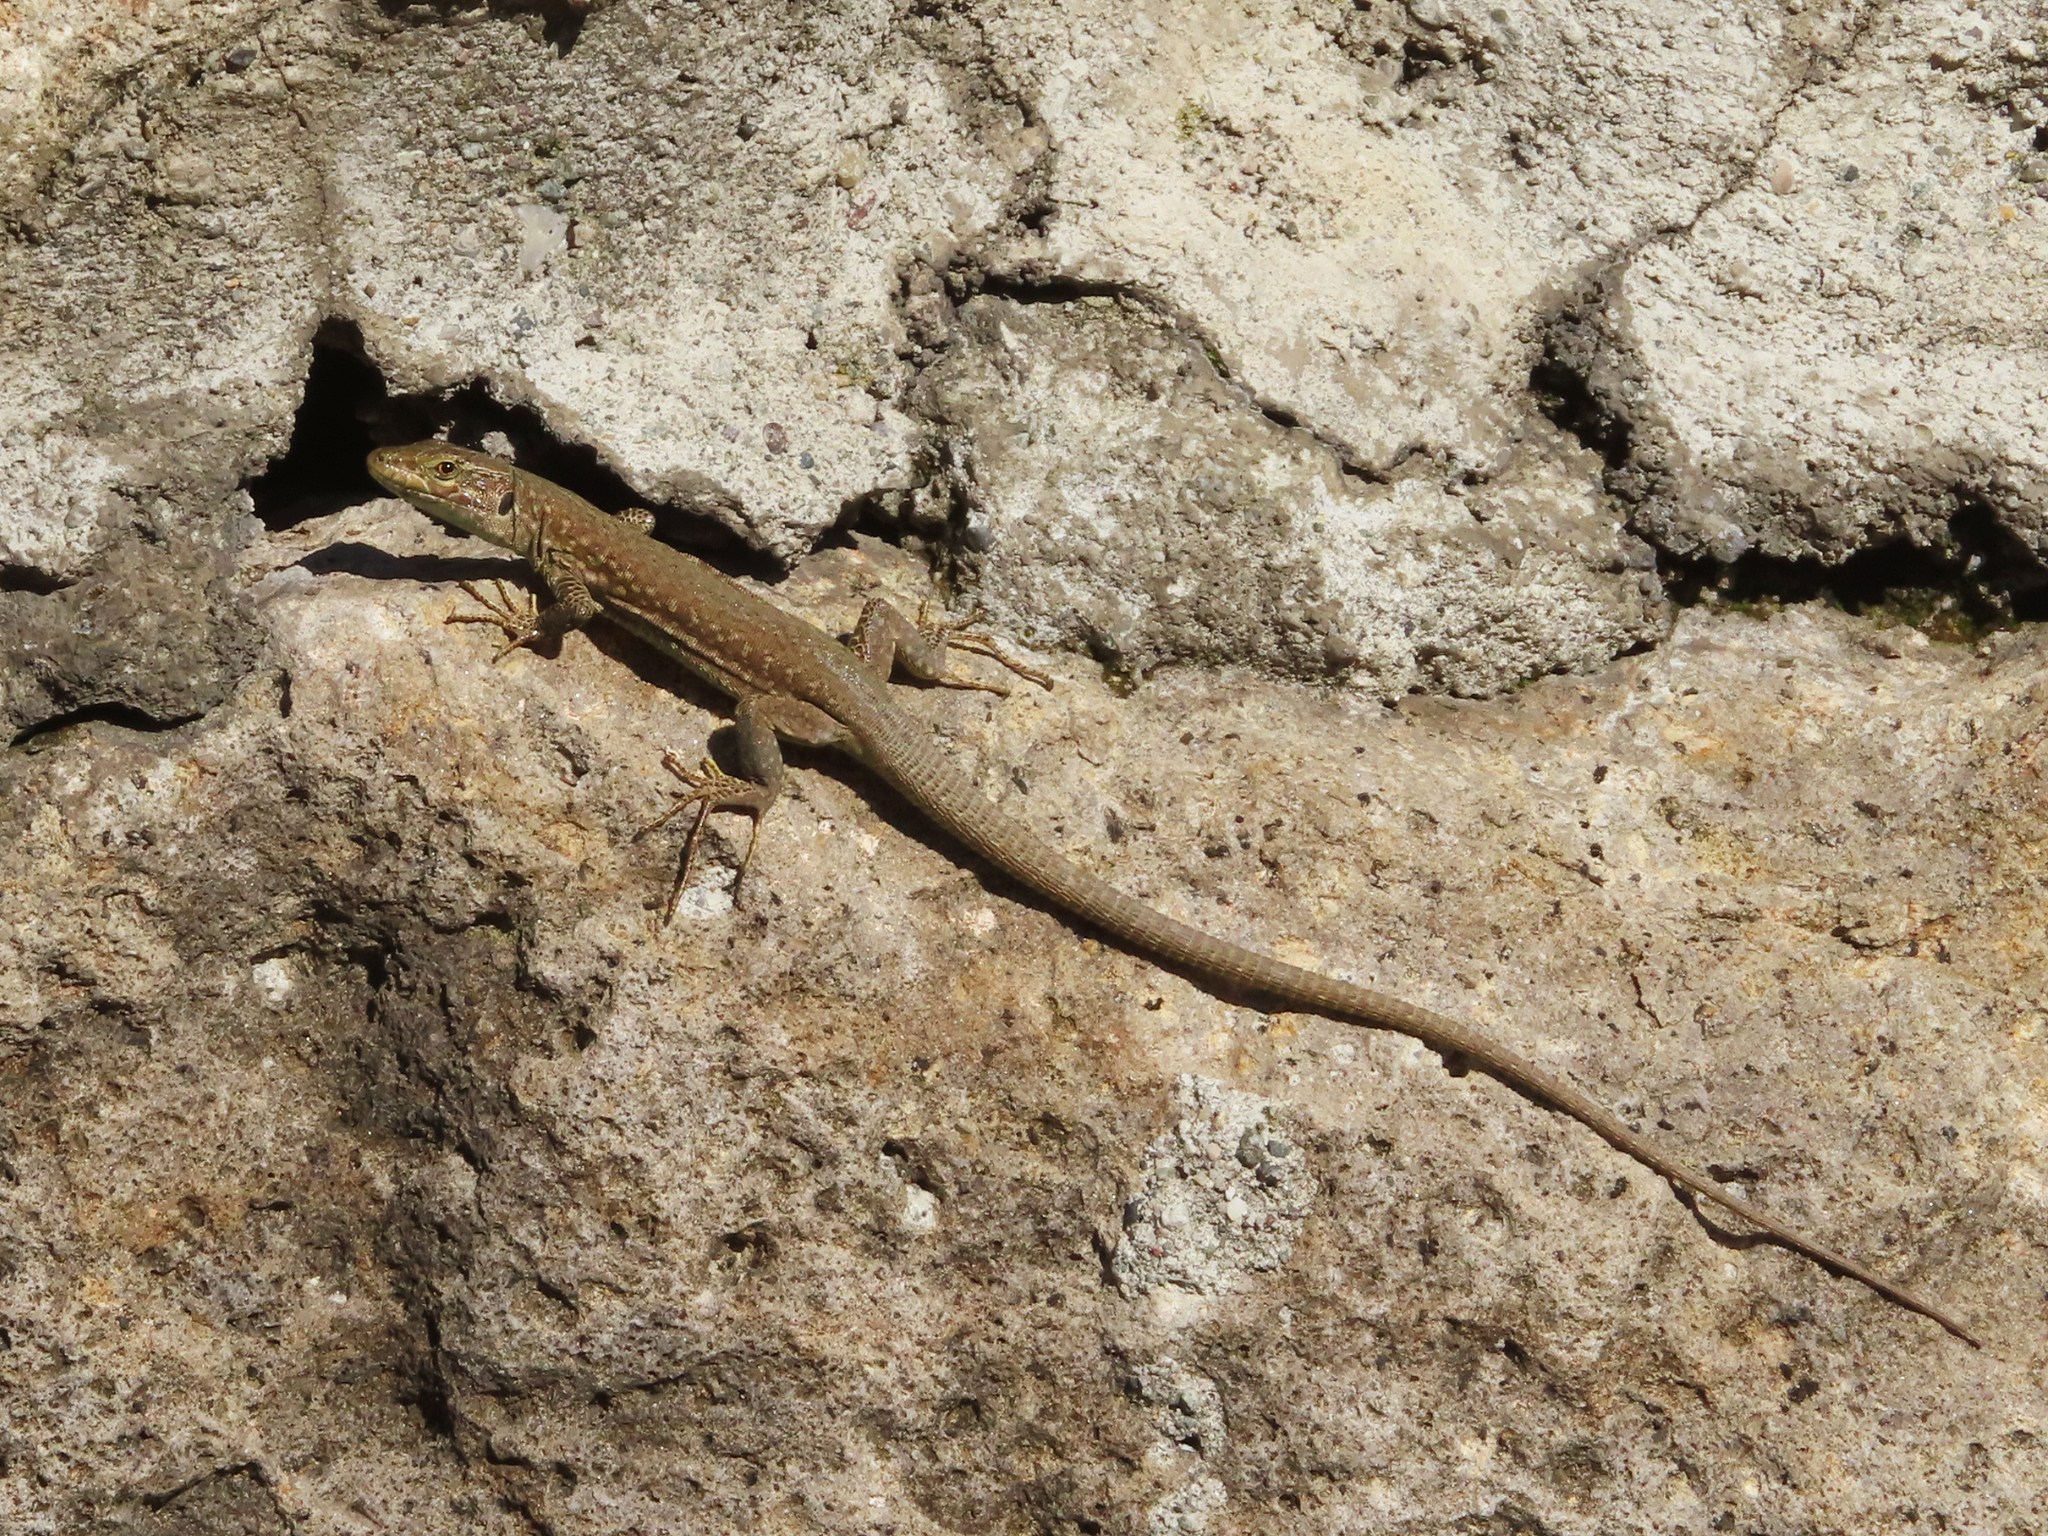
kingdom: Animalia
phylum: Chordata
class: Squamata
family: Lacertidae
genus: Podarcis
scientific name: Podarcis siculus
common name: Italian wall lizard
